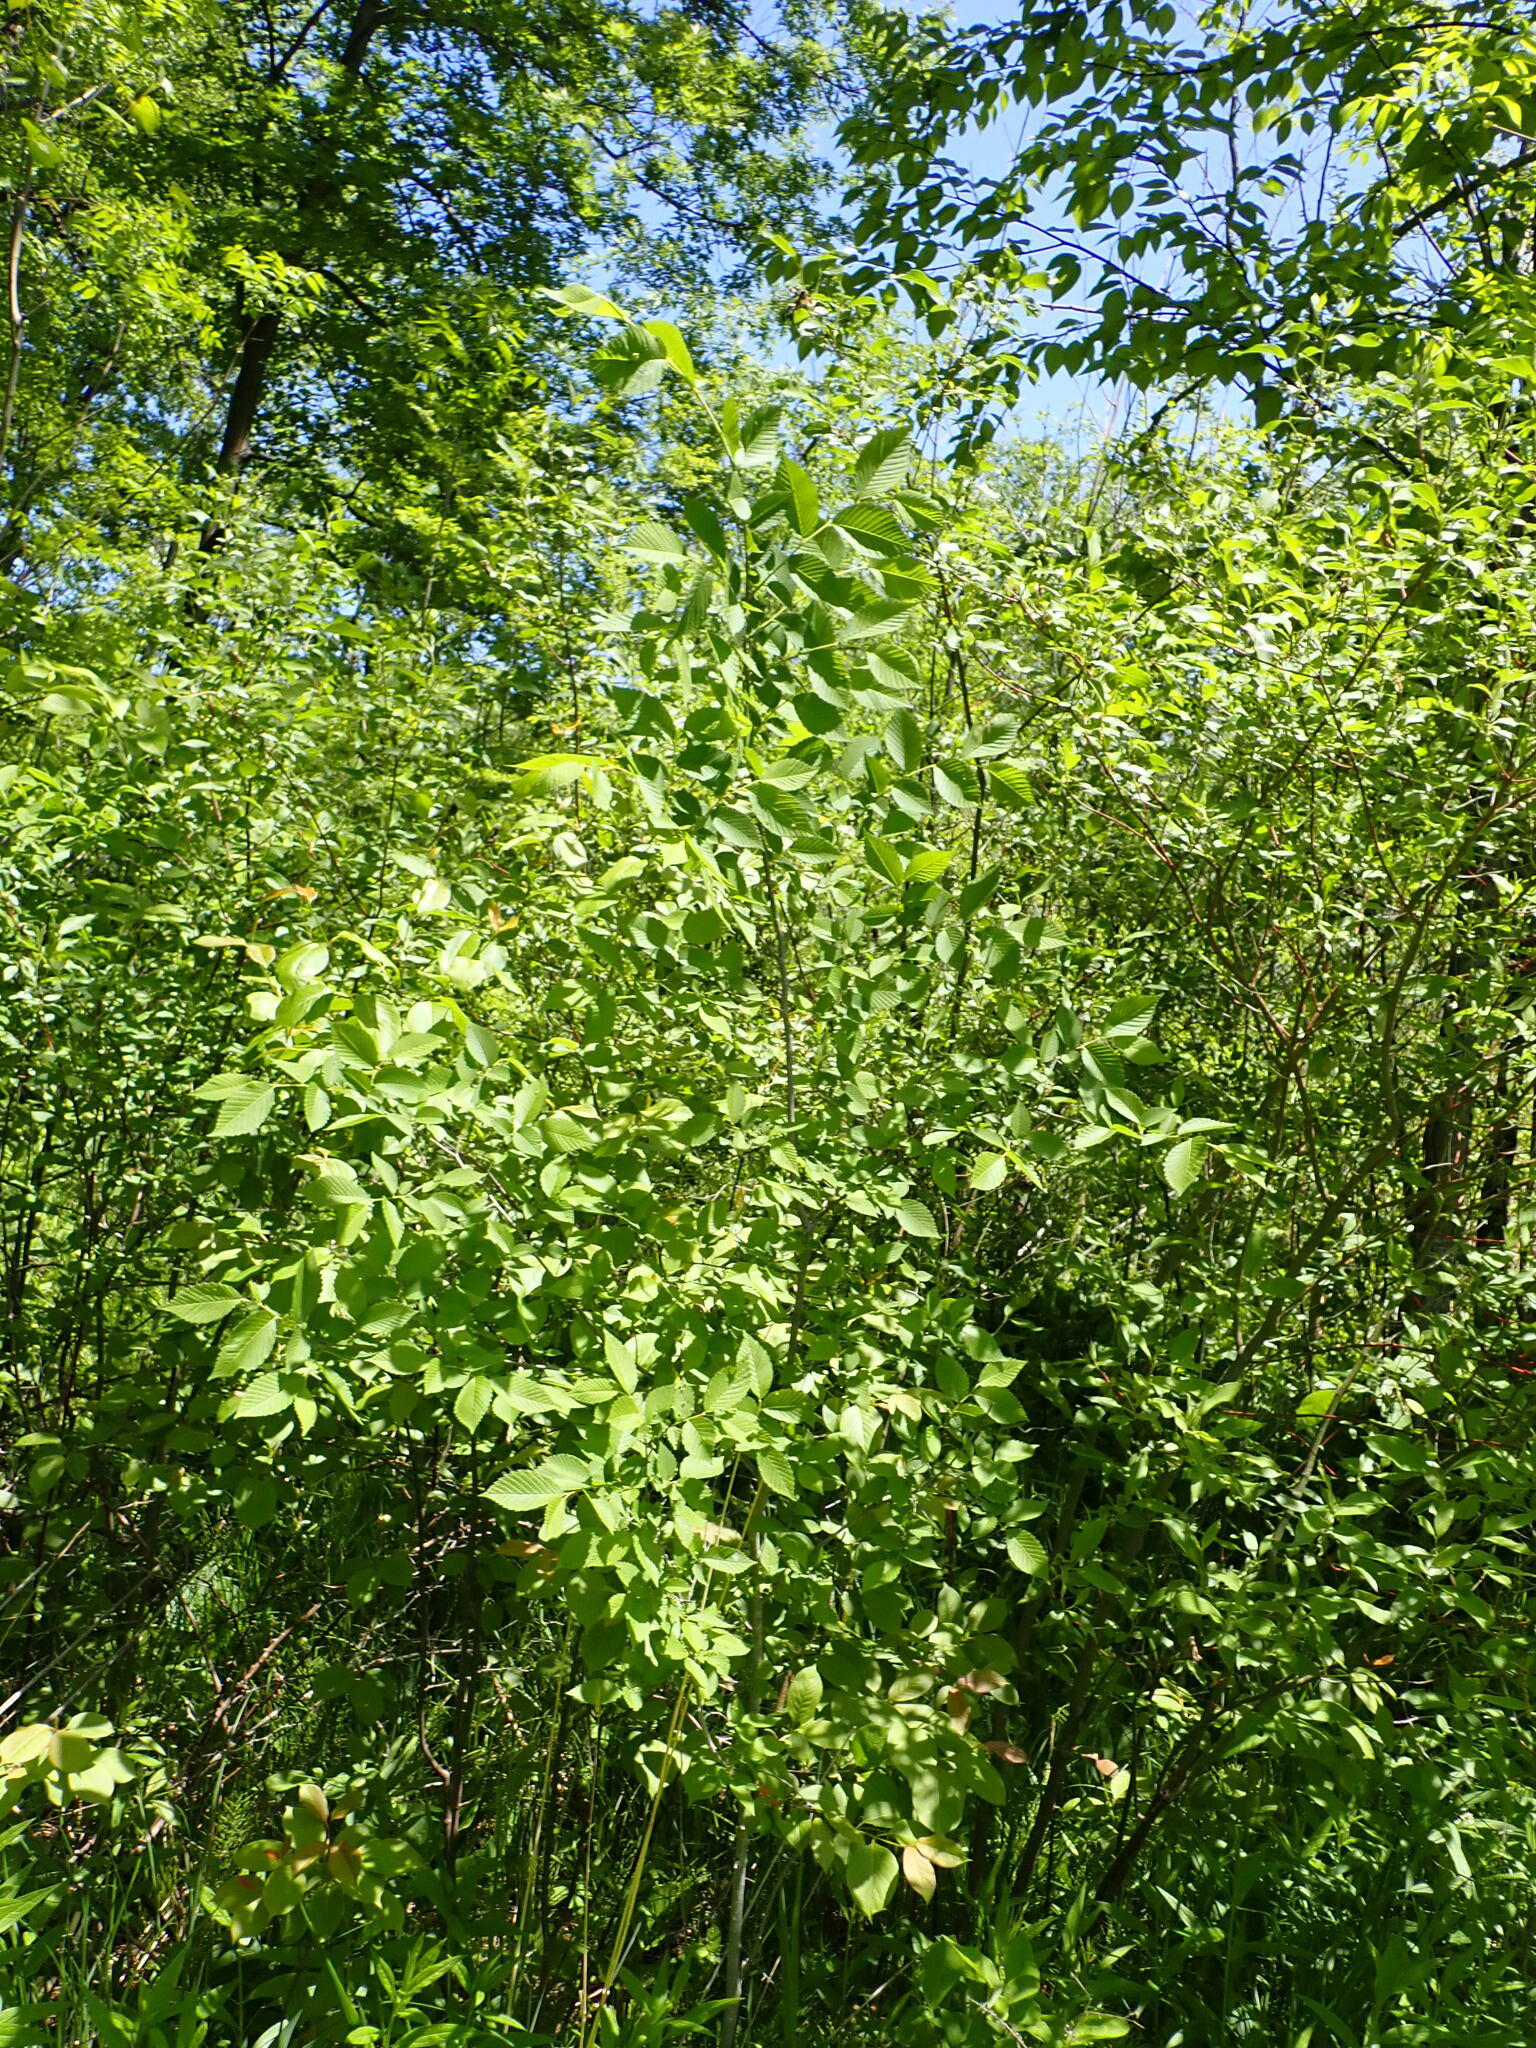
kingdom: Animalia
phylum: Arthropoda
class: Insecta
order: Hemiptera
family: Aphididae
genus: Colopha
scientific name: Colopha ulmicola
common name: Elm cockscombgall aphid
